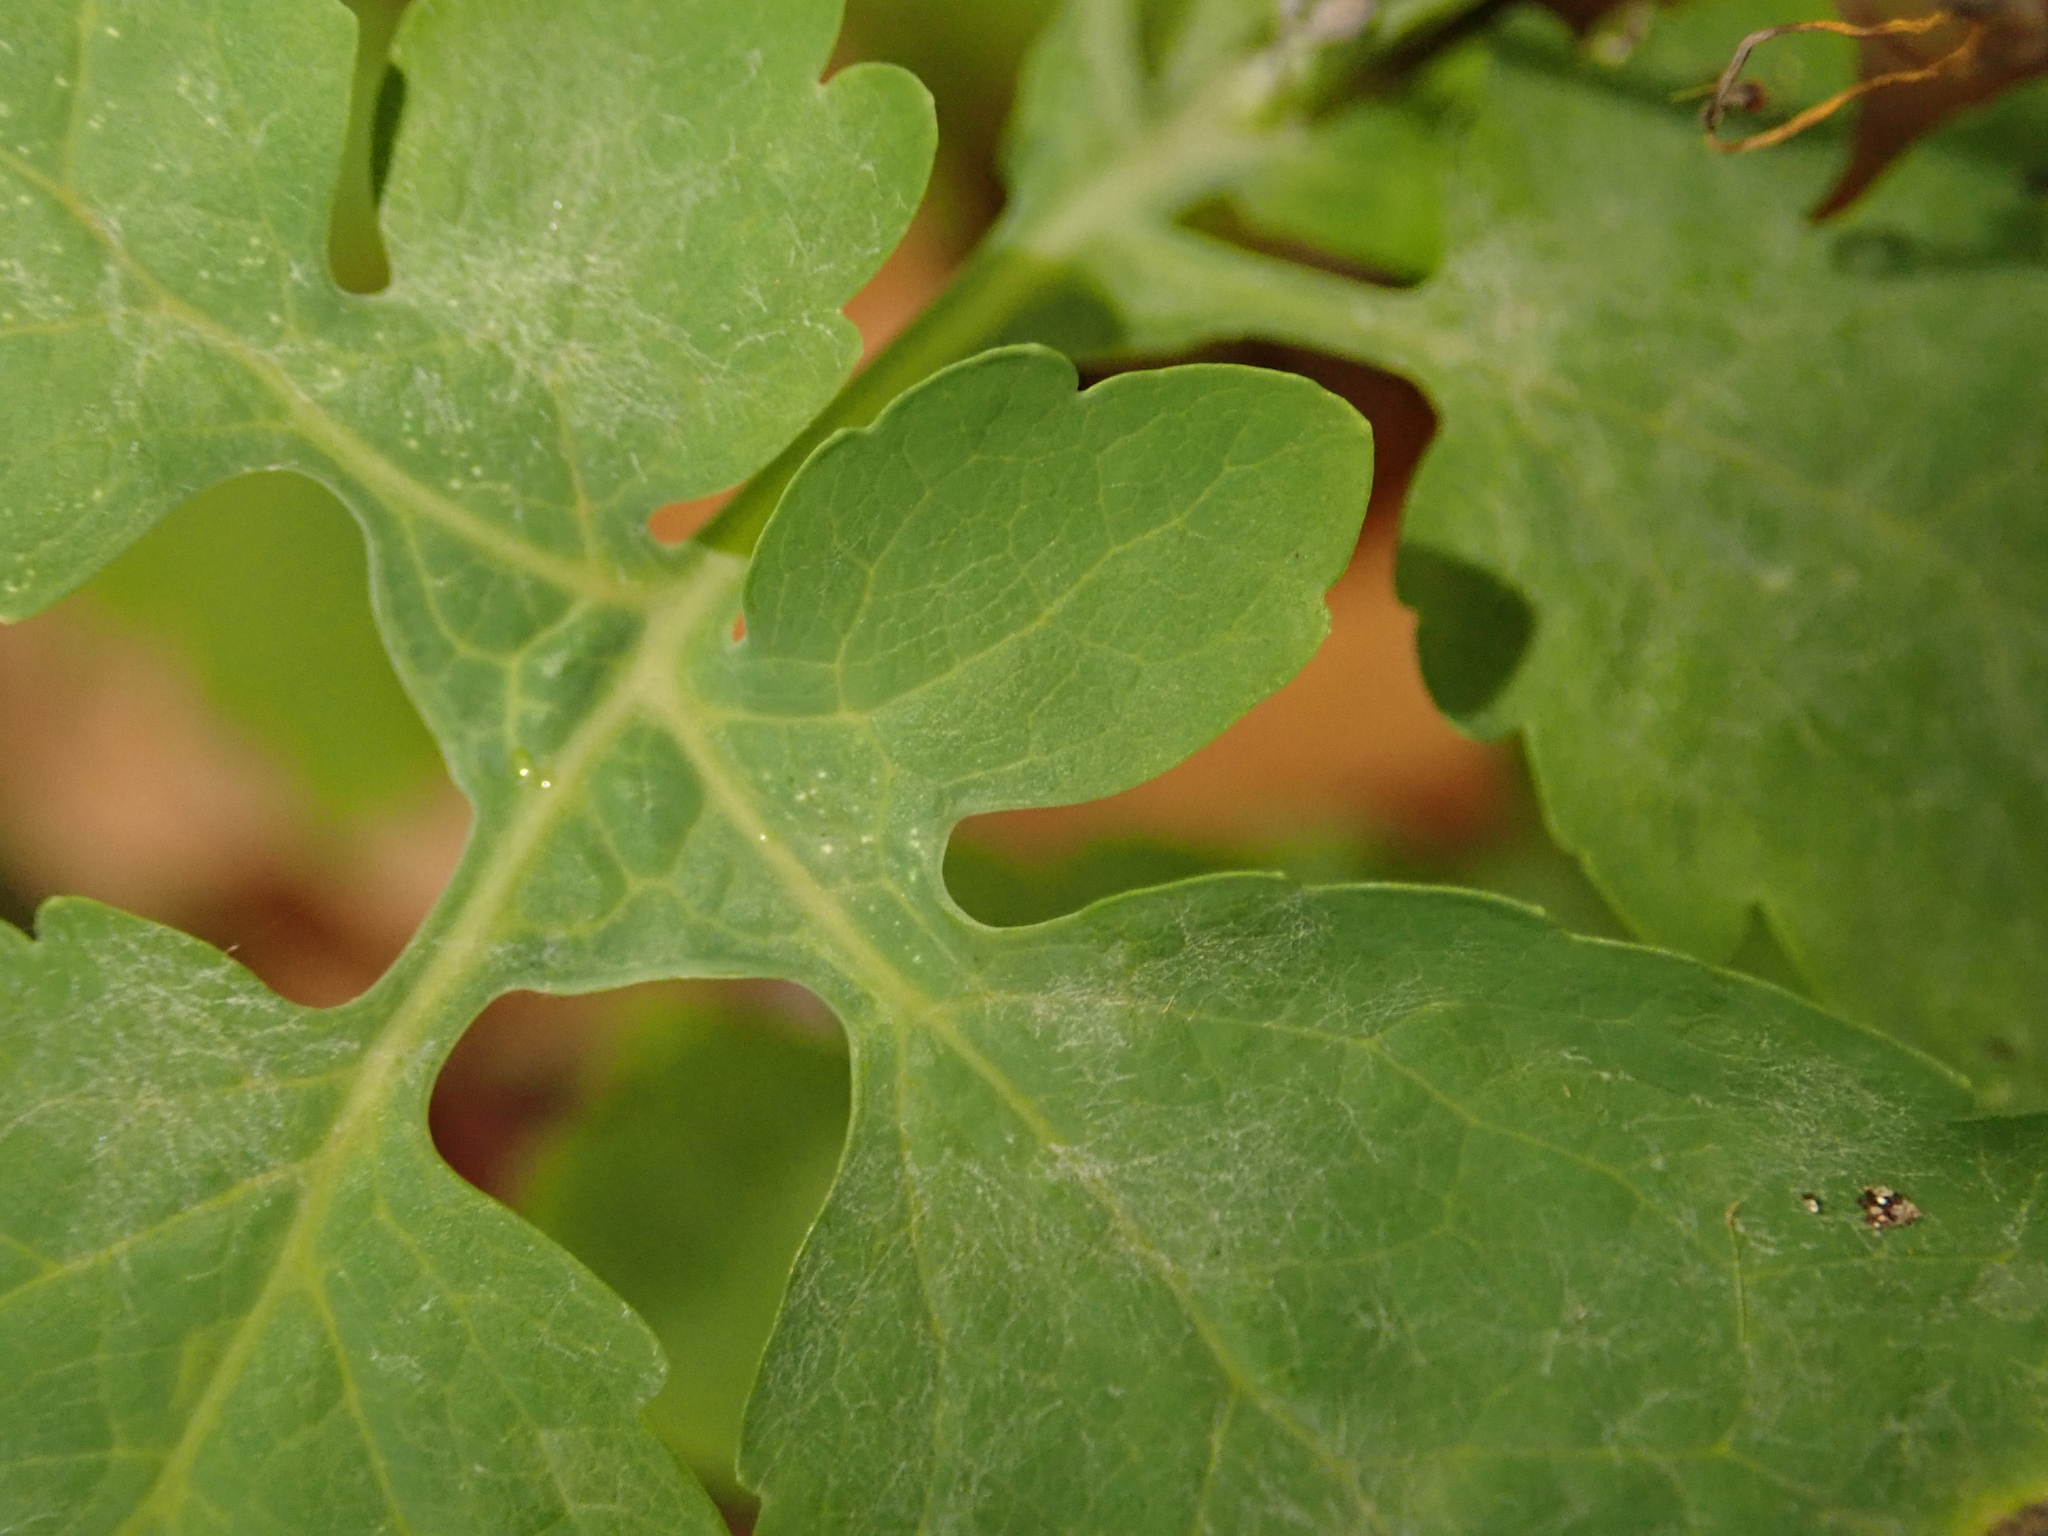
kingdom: Fungi
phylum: Ascomycota
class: Leotiomycetes
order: Helotiales
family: Erysiphaceae
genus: Erysiphe
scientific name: Erysiphe macleayae
